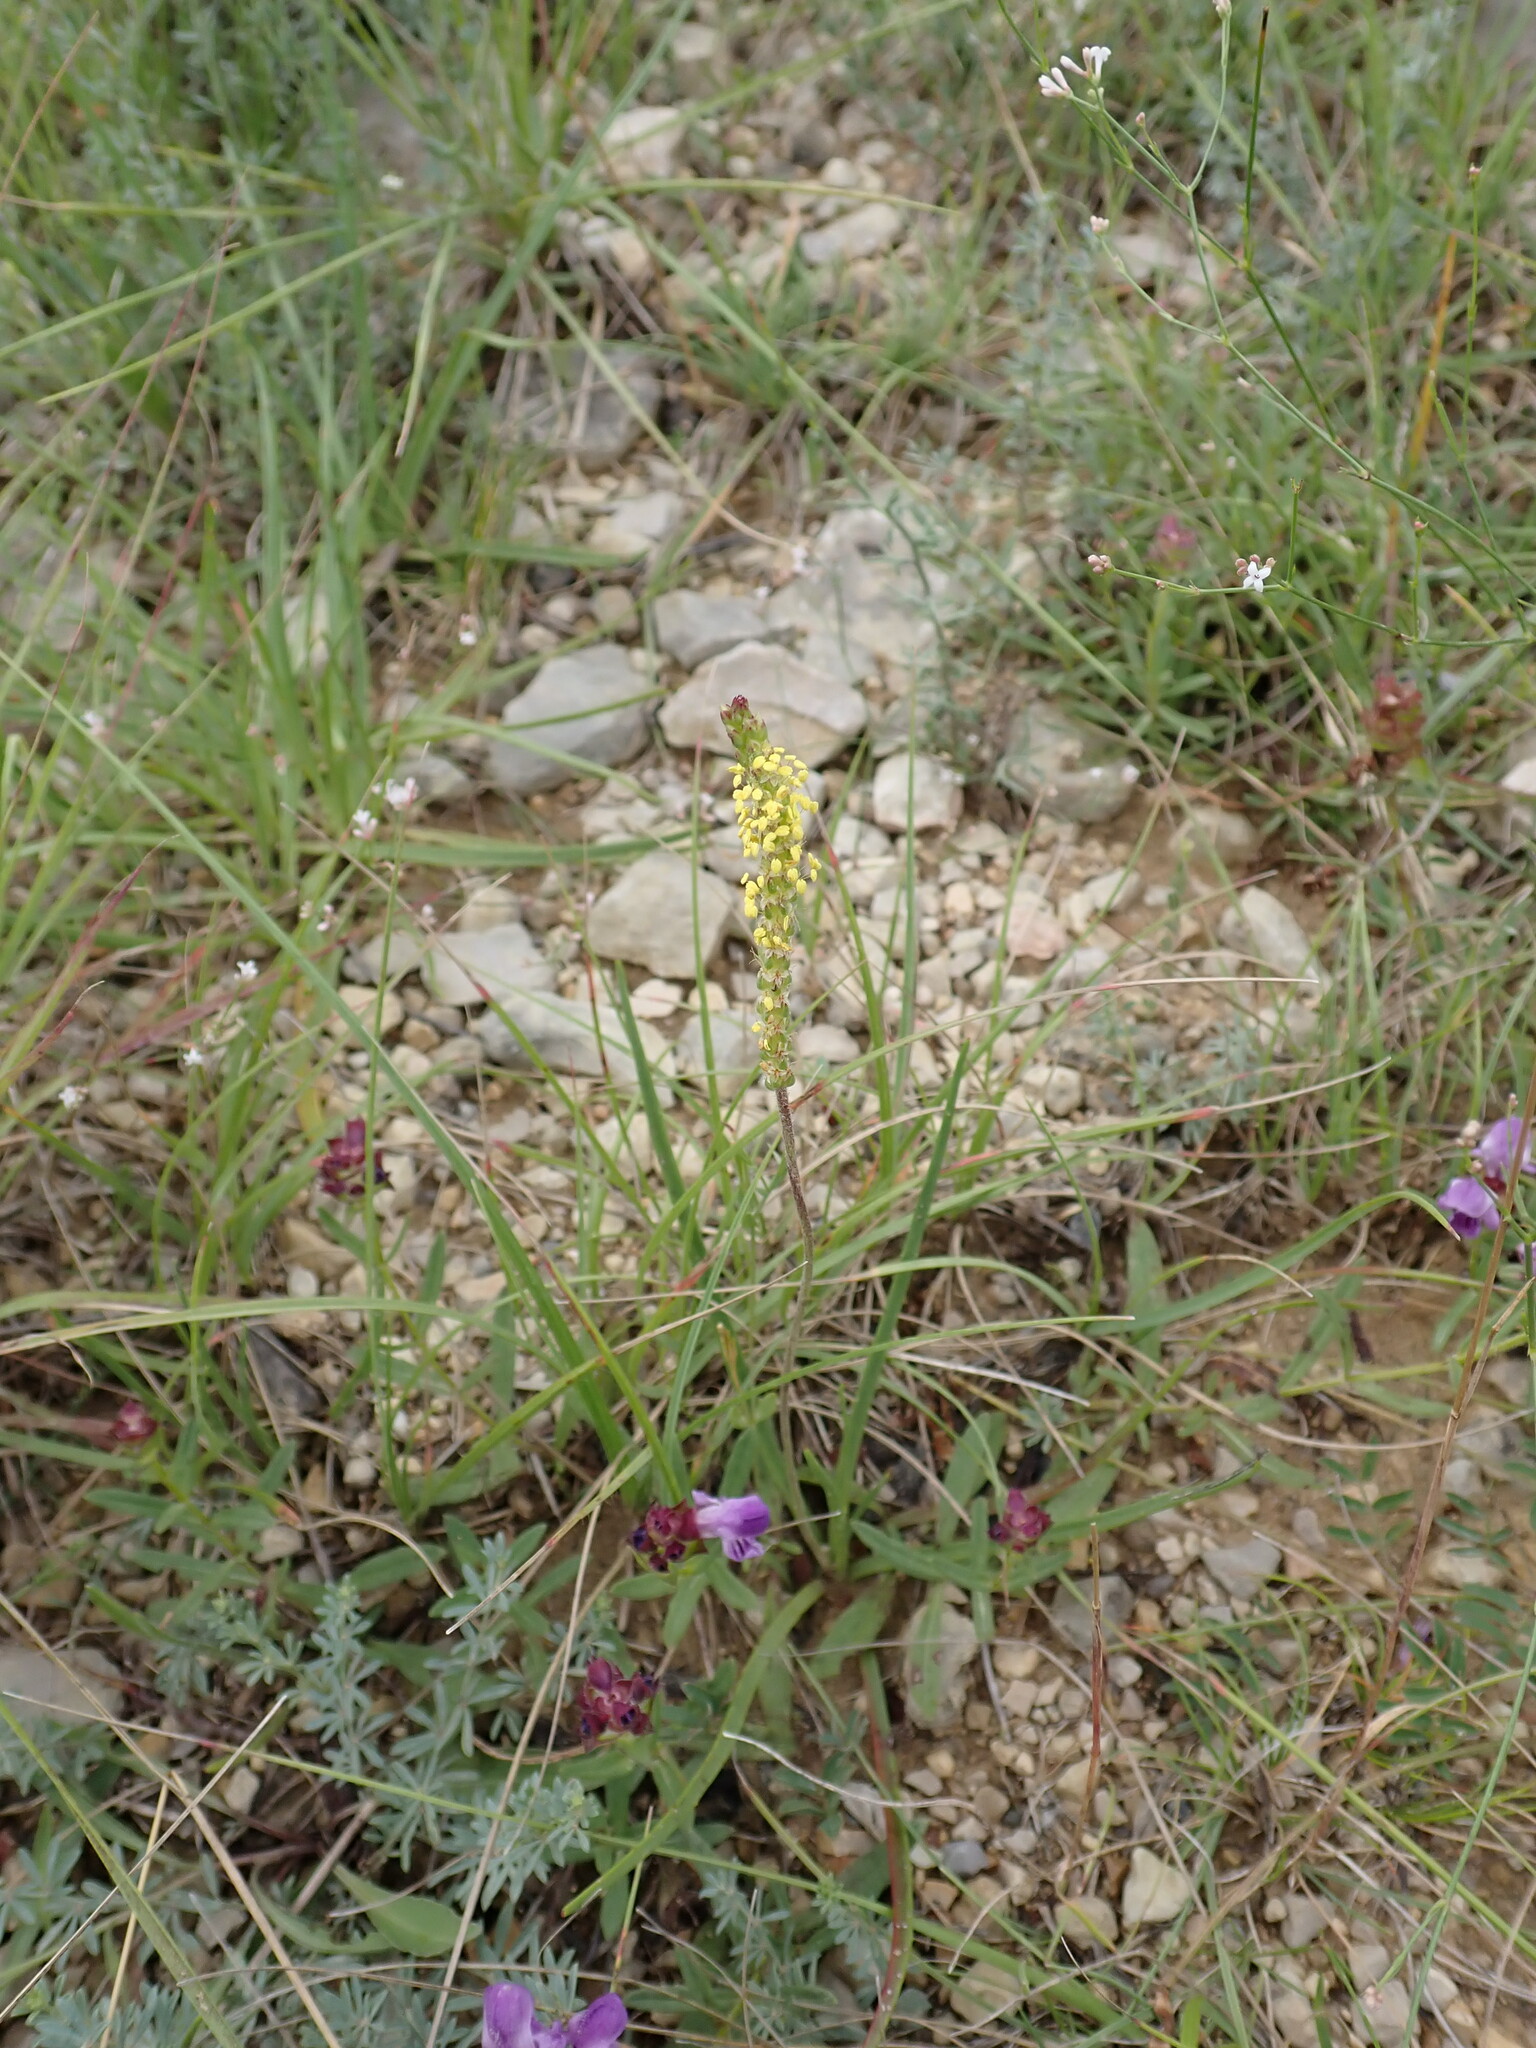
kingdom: Plantae
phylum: Tracheophyta
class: Magnoliopsida
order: Lamiales
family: Plantaginaceae
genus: Plantago
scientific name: Plantago
